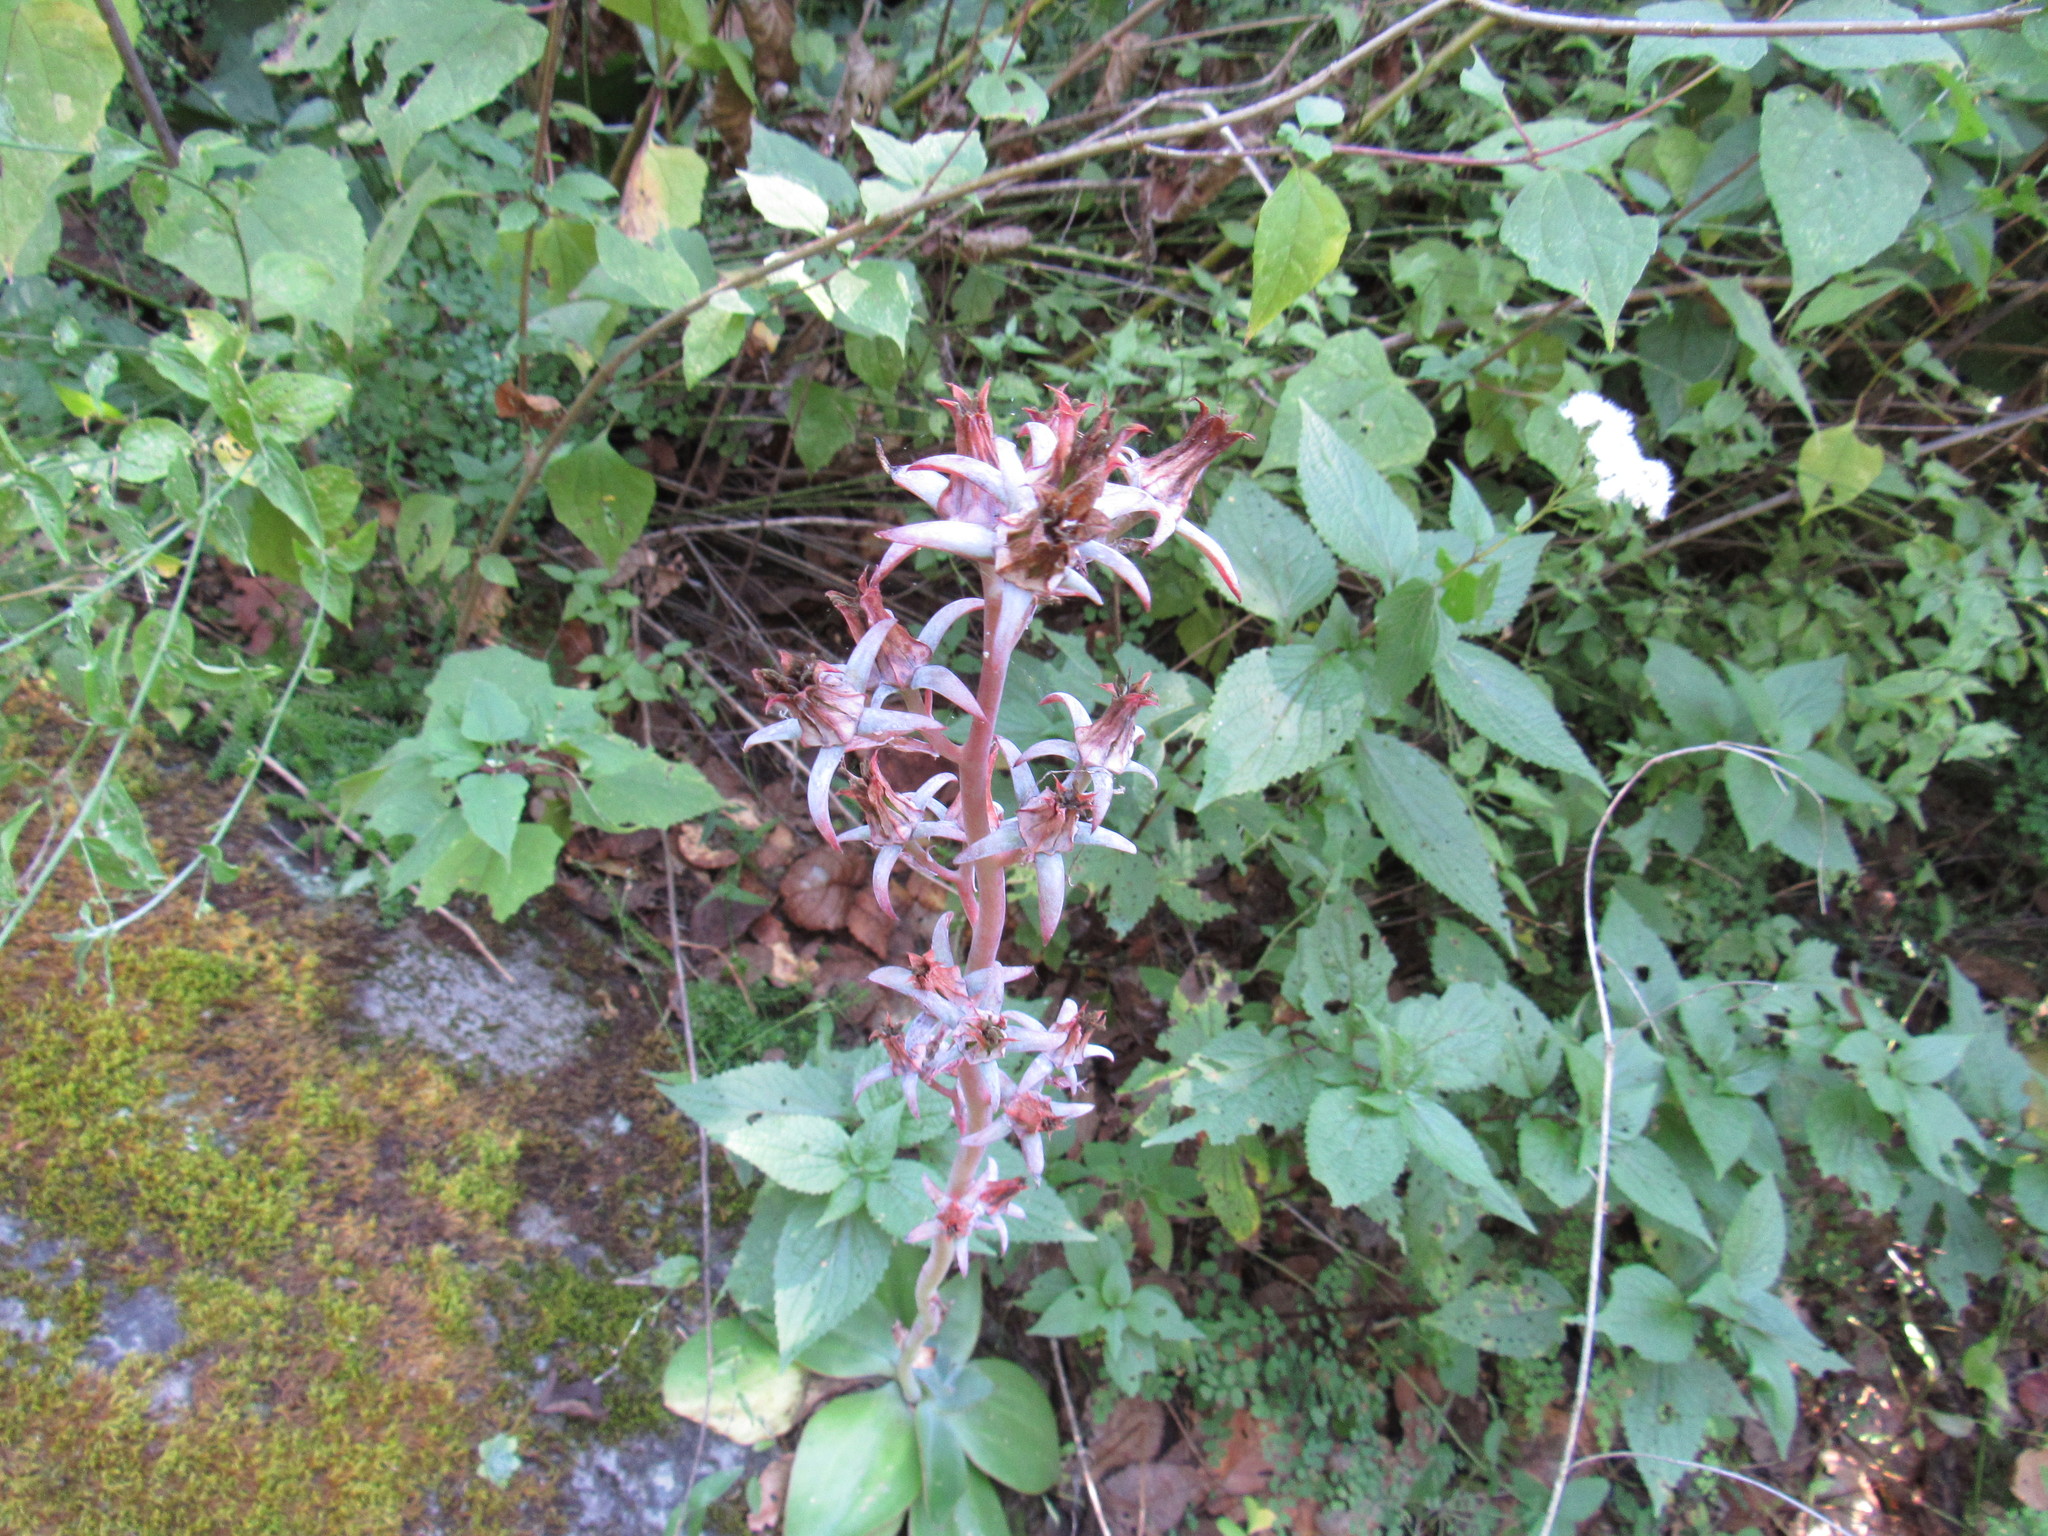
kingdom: Plantae
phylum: Tracheophyta
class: Magnoliopsida
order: Saxifragales
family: Crassulaceae
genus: Echeveria
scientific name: Echeveria subrigida
